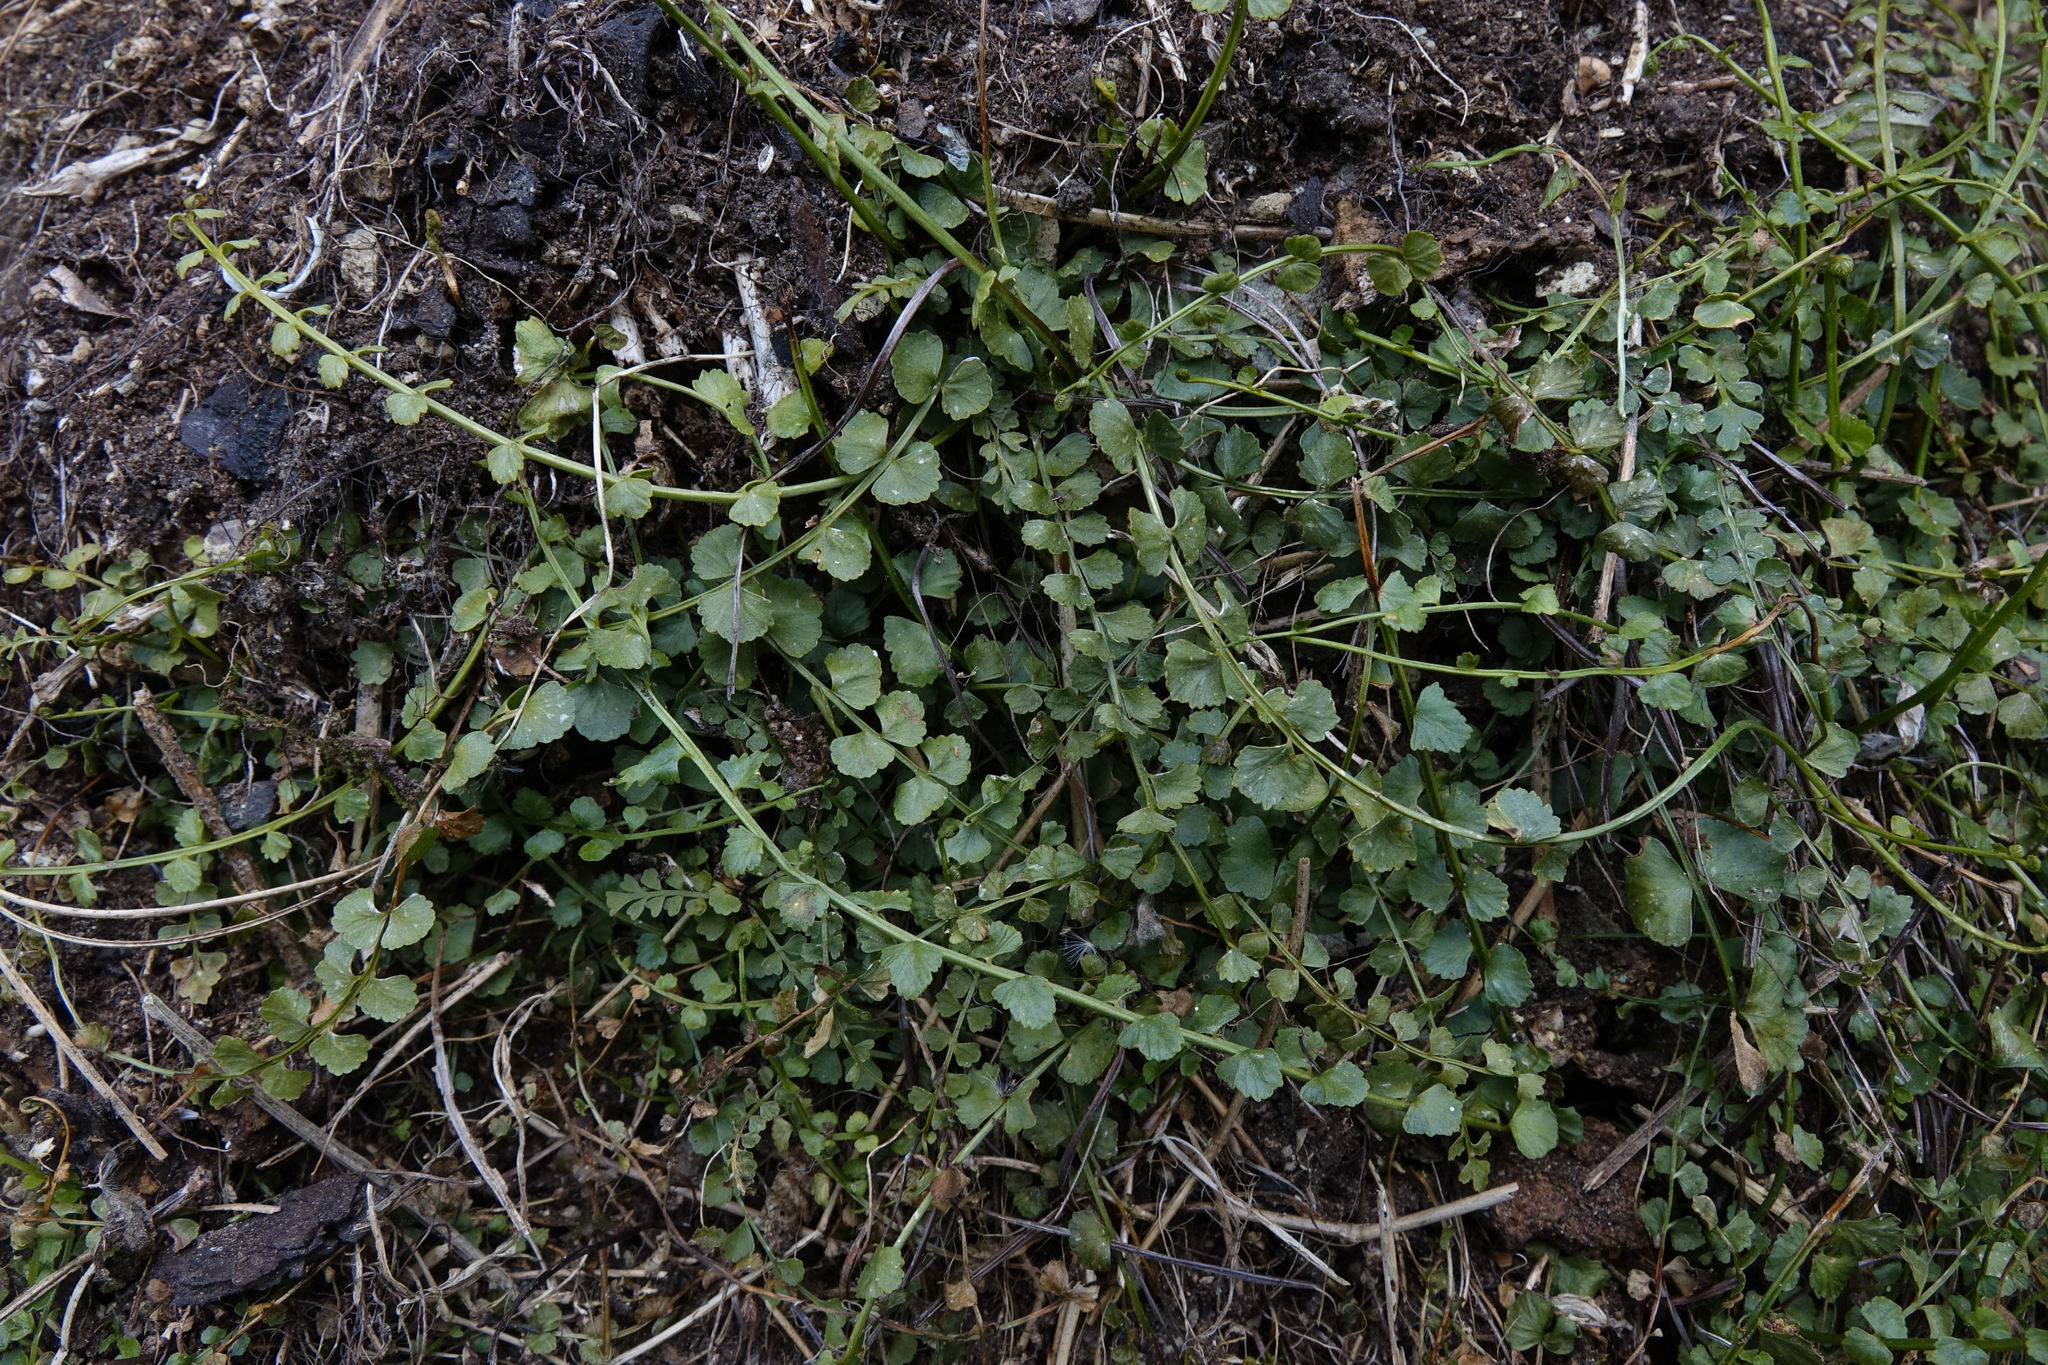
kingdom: Plantae
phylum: Tracheophyta
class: Polypodiopsida
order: Polypodiales
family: Aspleniaceae
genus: Asplenium
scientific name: Asplenium flabellifolium
